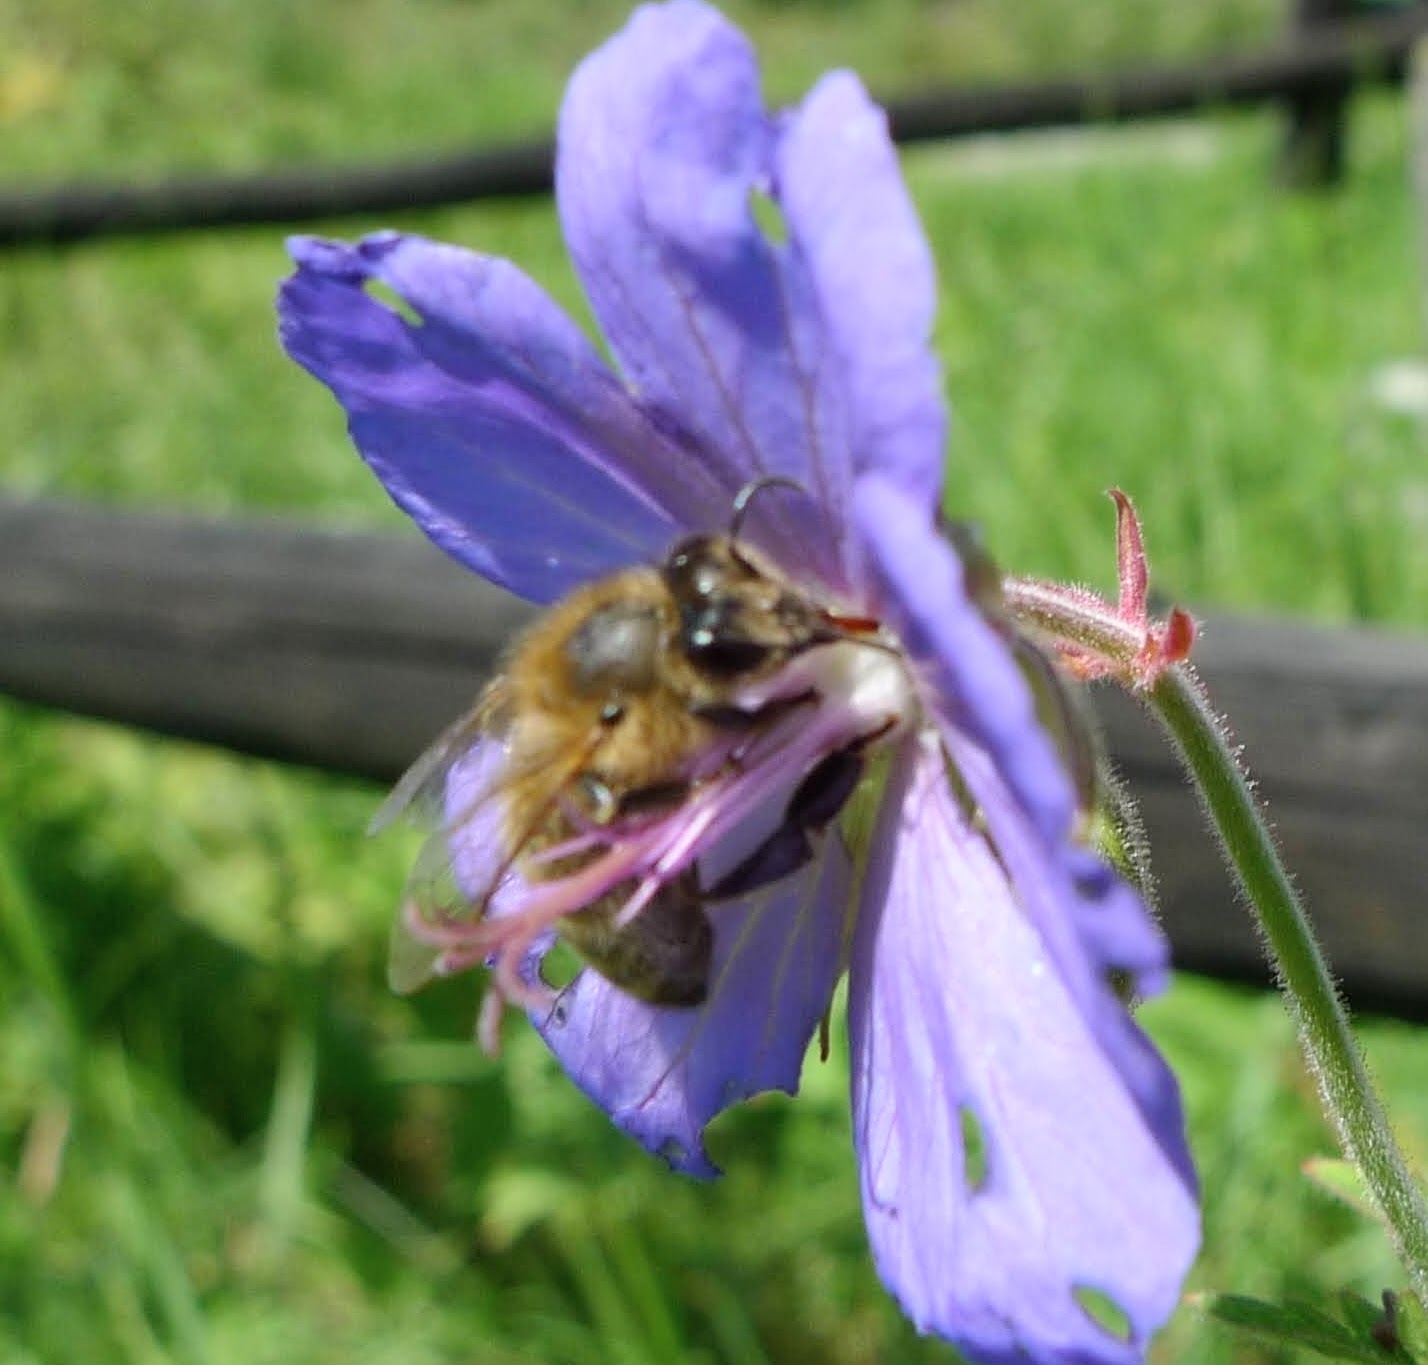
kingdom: Animalia
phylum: Arthropoda
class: Insecta
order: Hymenoptera
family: Apidae
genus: Apis
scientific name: Apis mellifera
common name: Honey bee
